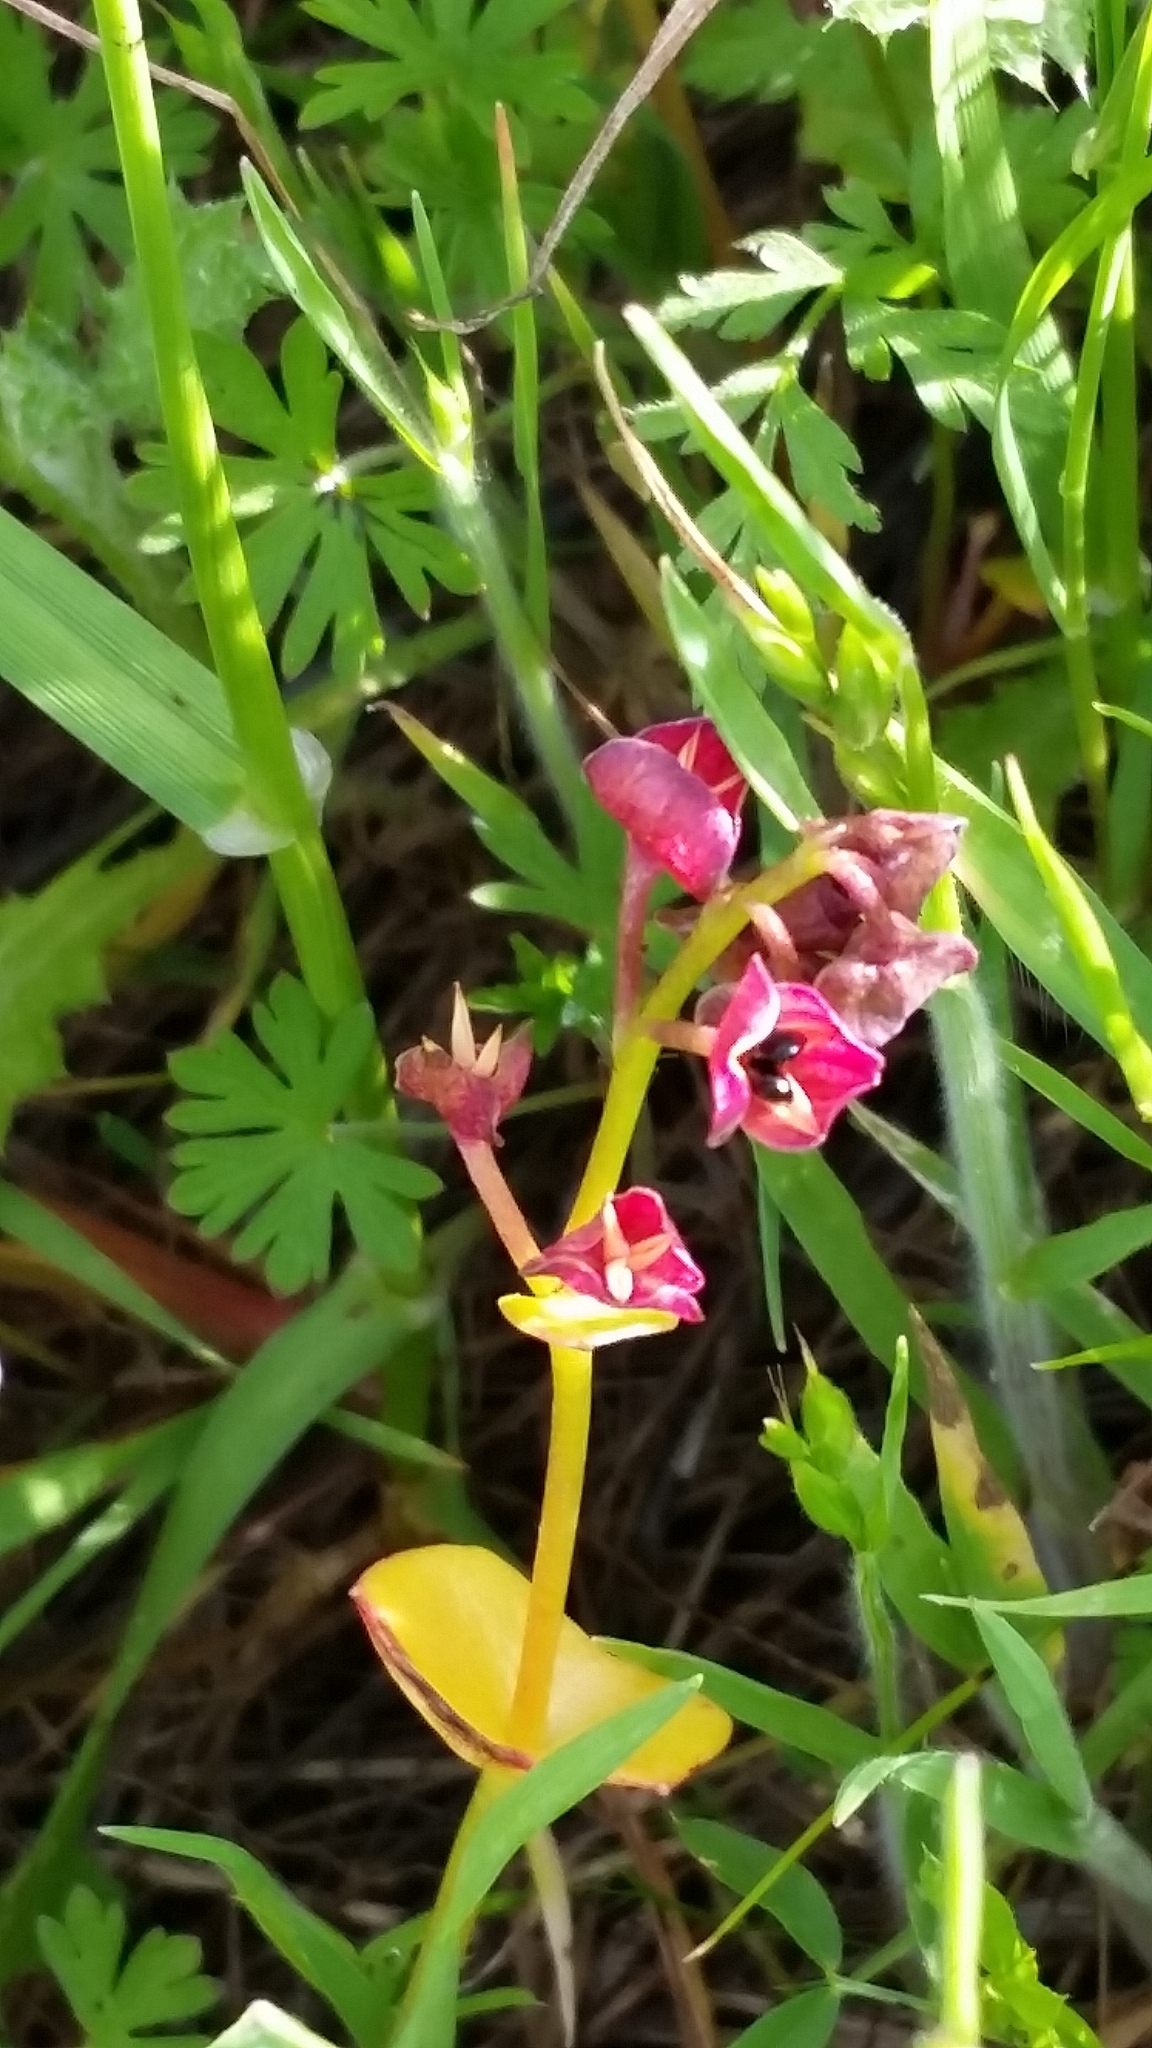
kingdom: Plantae
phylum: Tracheophyta
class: Magnoliopsida
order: Caryophyllales
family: Montiaceae
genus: Claytonia
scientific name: Claytonia perfoliata
